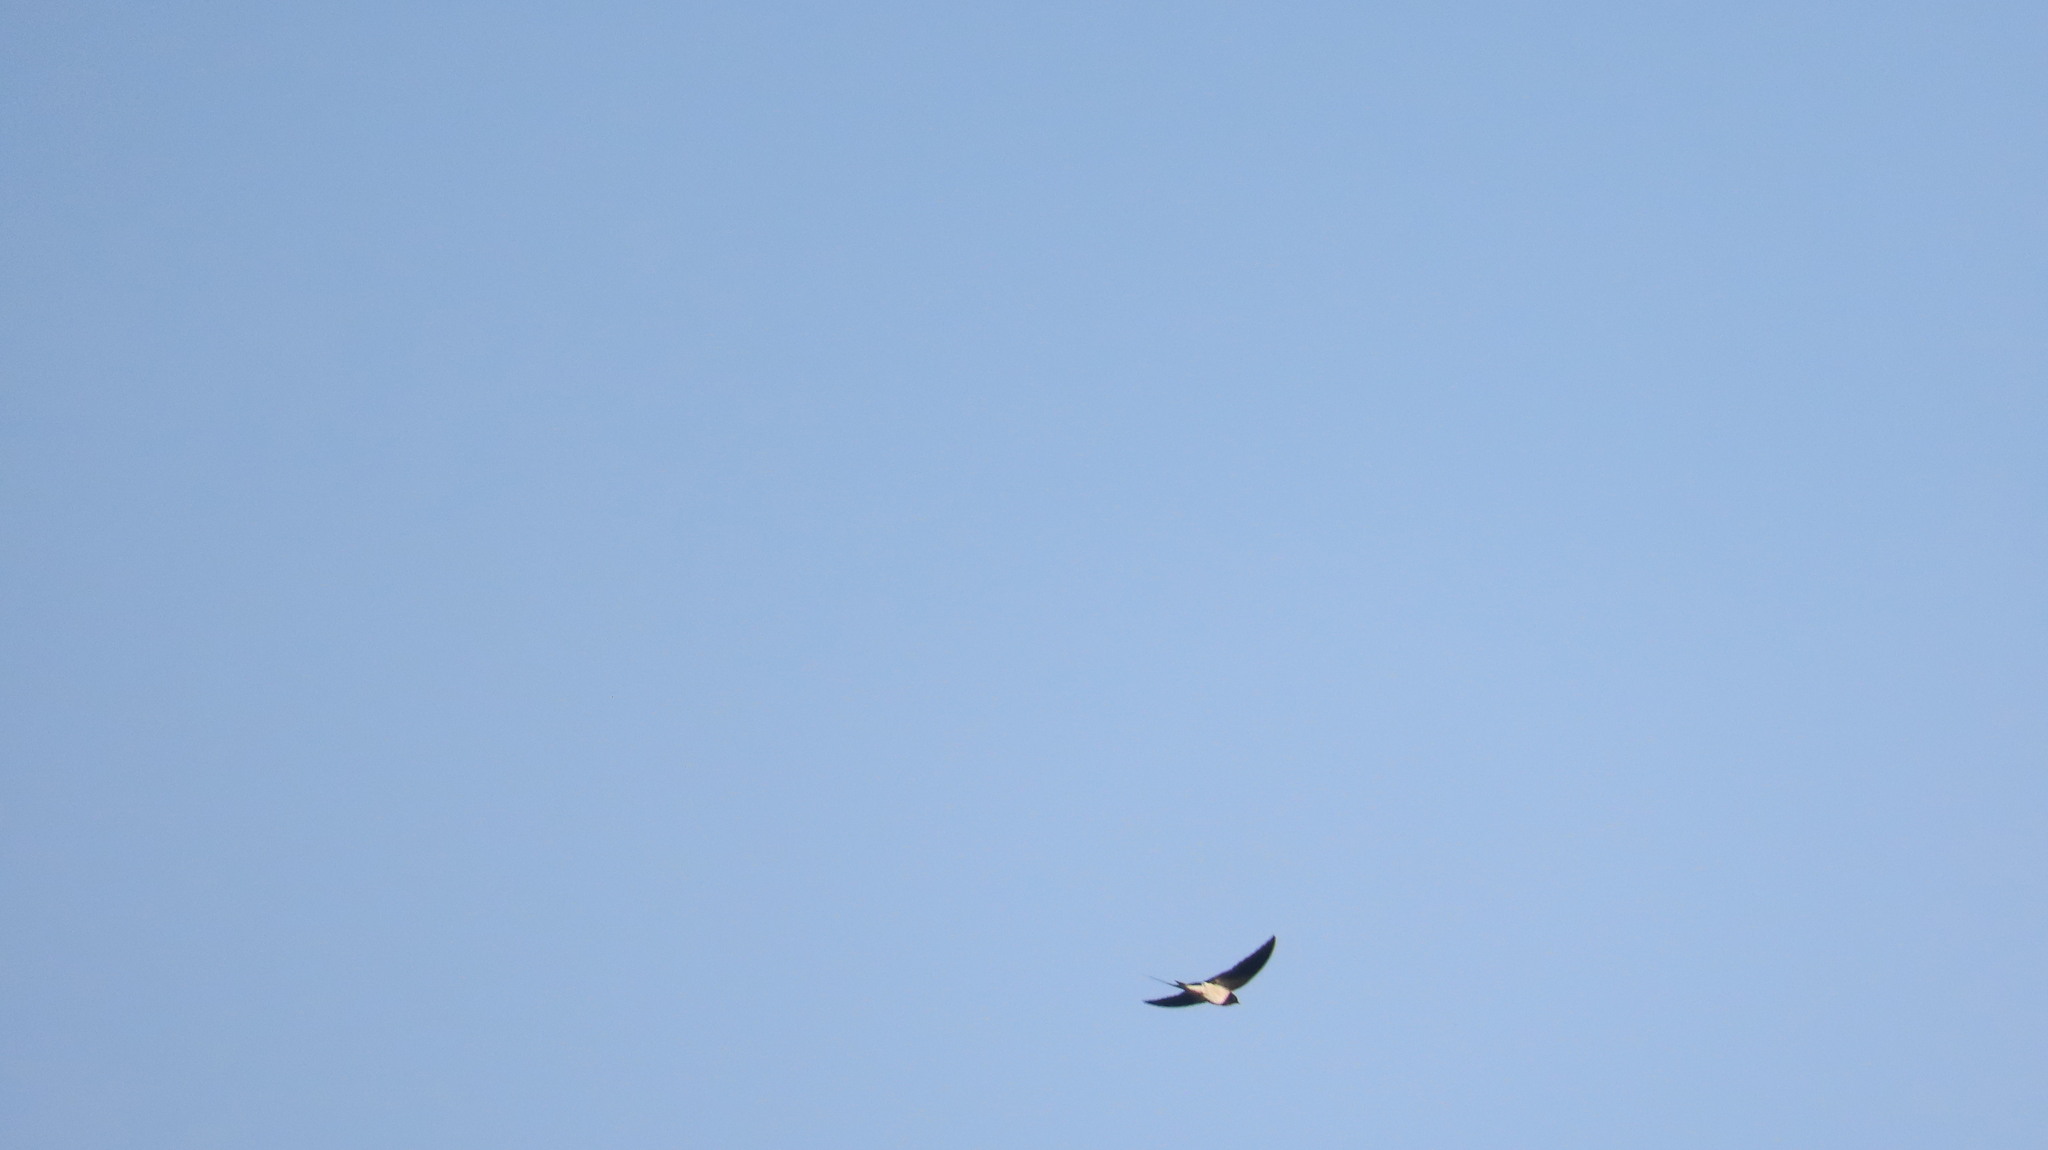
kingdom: Animalia
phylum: Chordata
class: Aves
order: Passeriformes
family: Hirundinidae
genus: Hirundo
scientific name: Hirundo rustica
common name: Barn swallow
